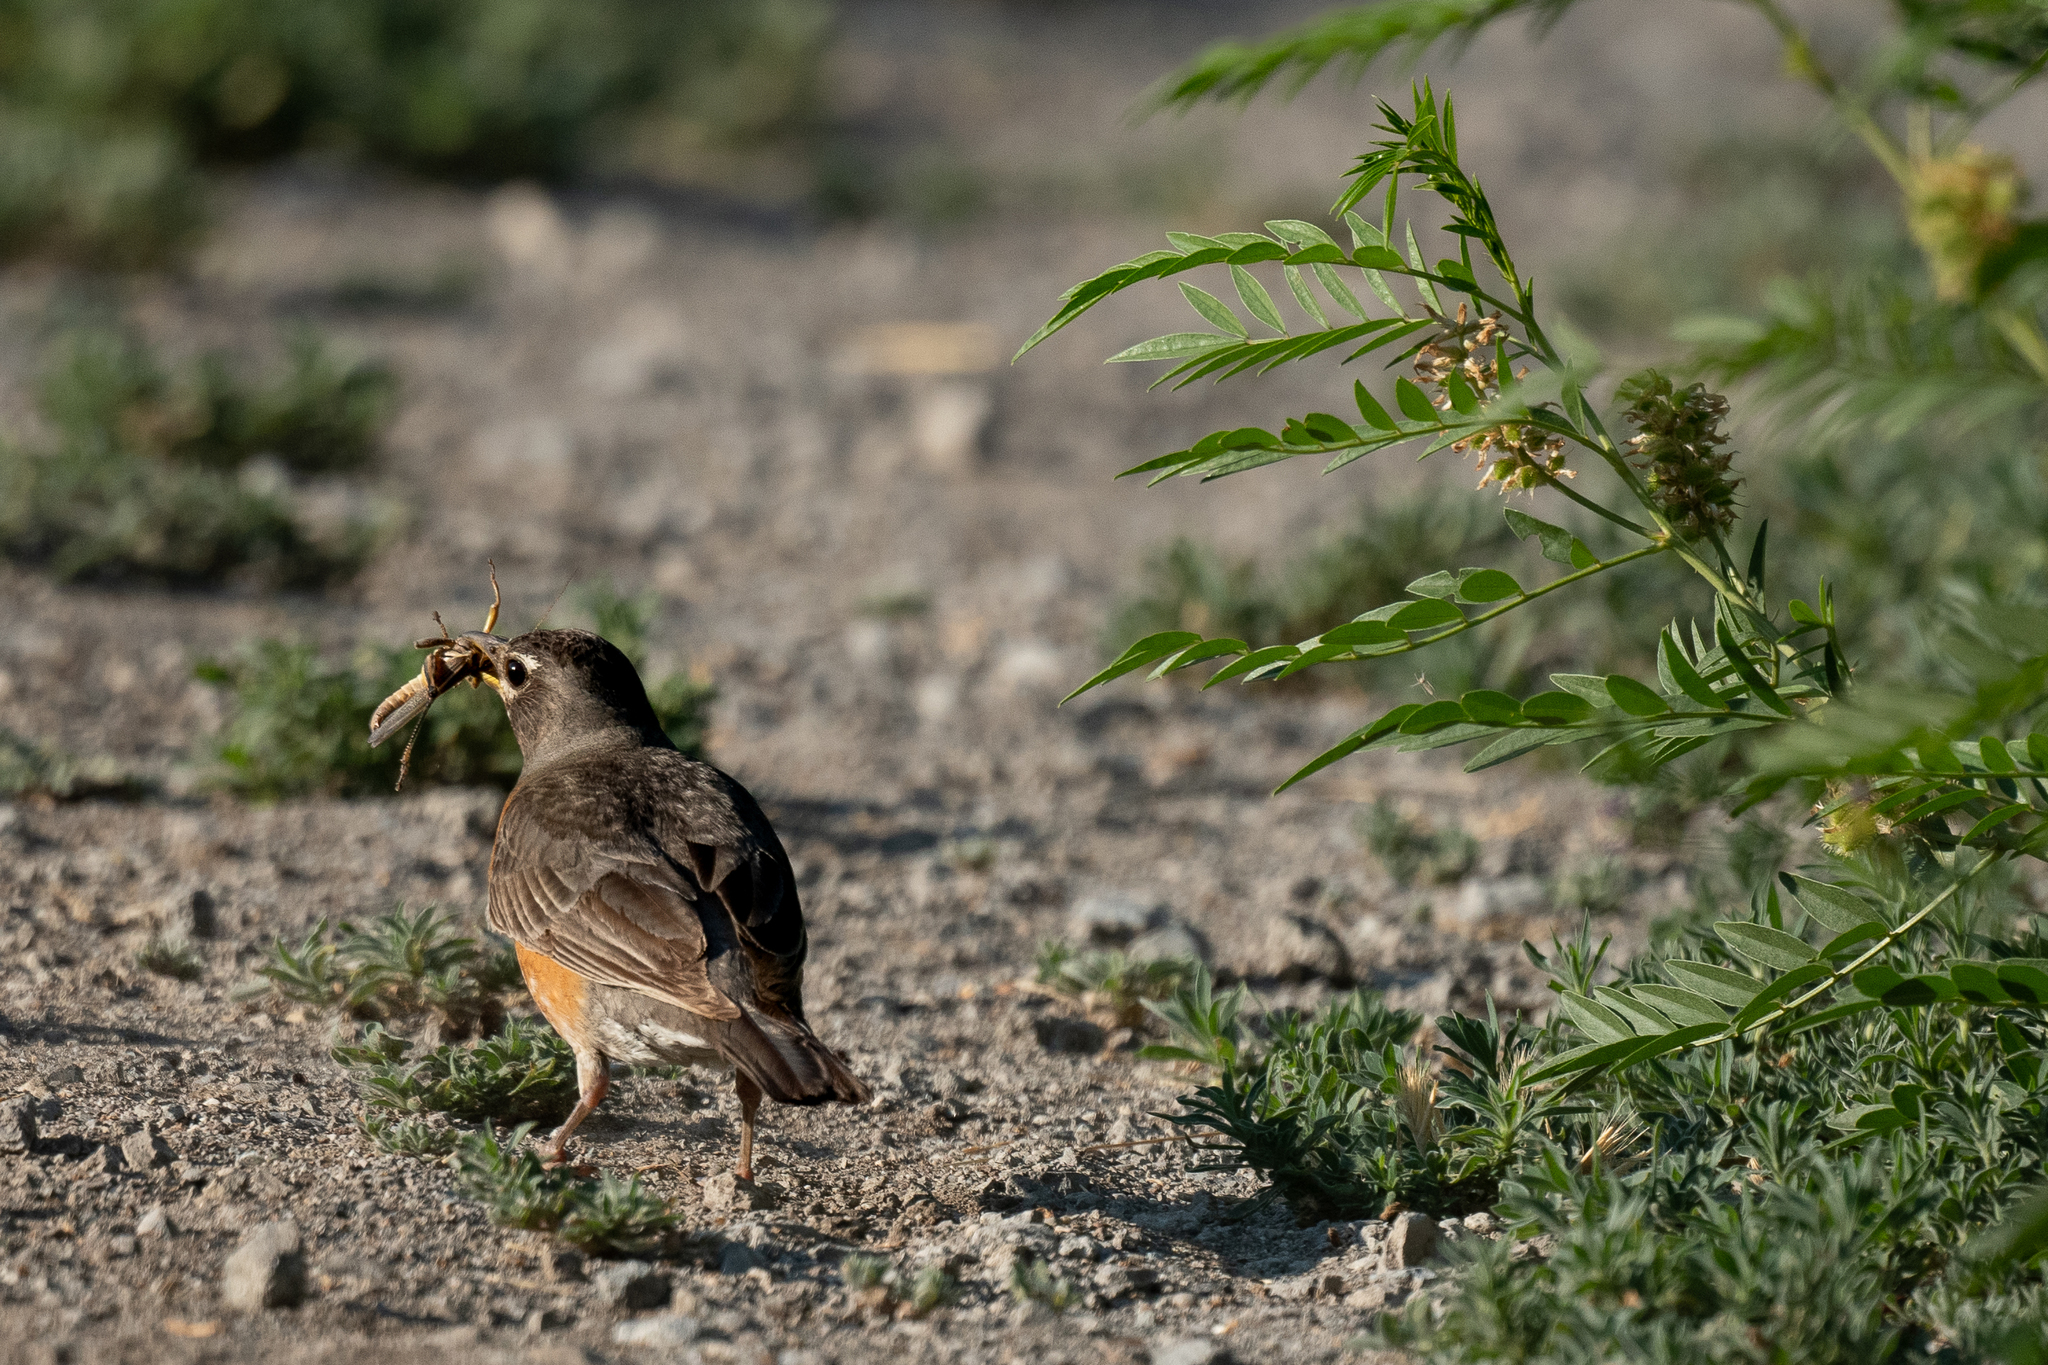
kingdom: Animalia
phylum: Chordata
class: Aves
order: Passeriformes
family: Turdidae
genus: Turdus
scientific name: Turdus migratorius
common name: American robin
